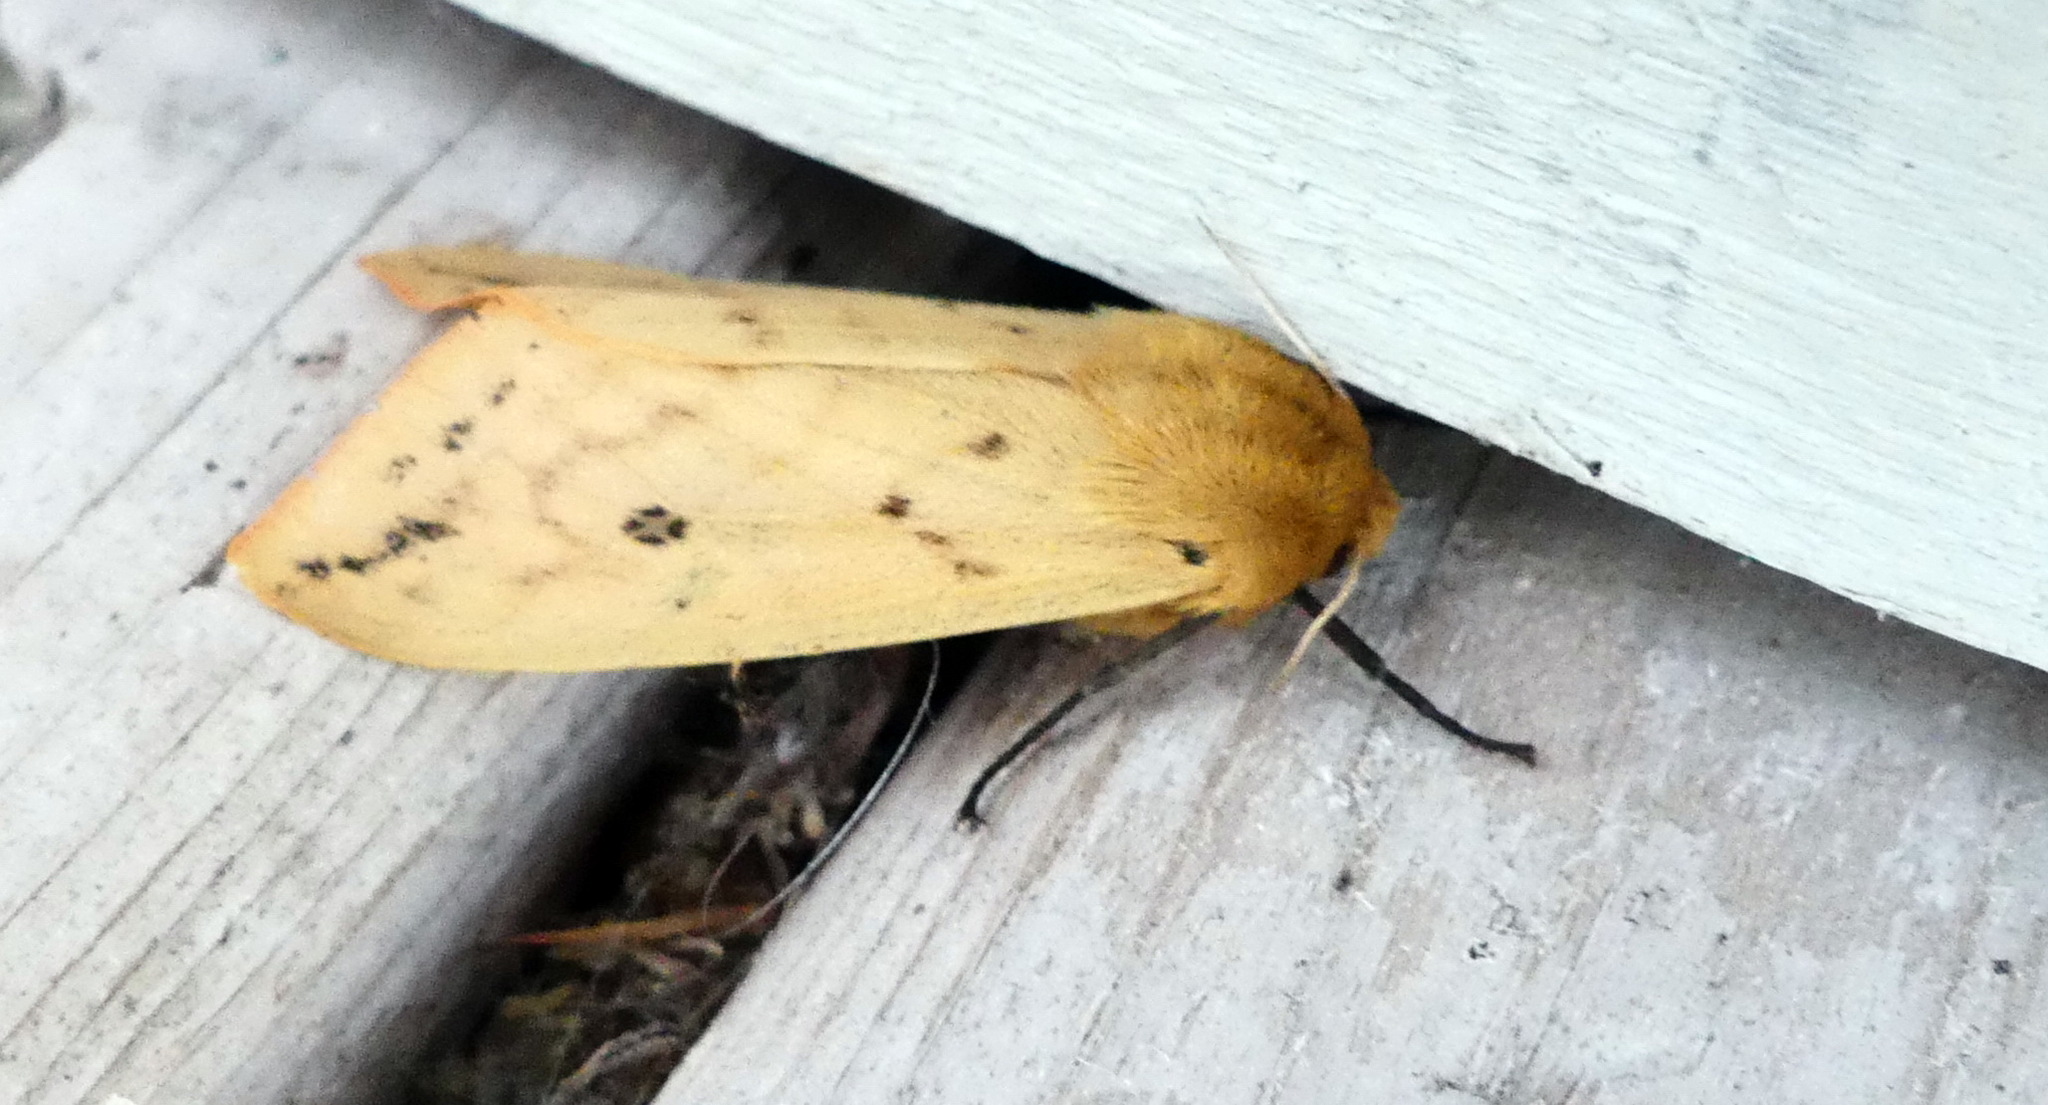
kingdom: Animalia
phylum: Arthropoda
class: Insecta
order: Lepidoptera
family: Erebidae
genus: Pyrrharctia
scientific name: Pyrrharctia isabella
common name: Isabella tiger moth
